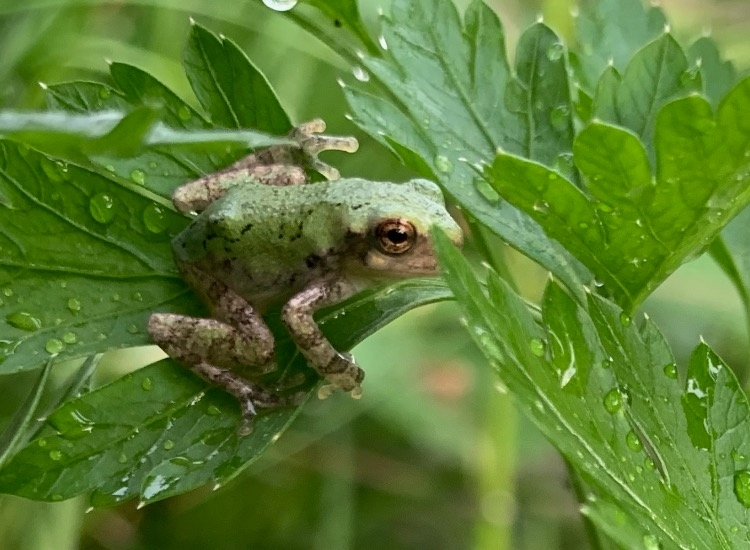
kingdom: Animalia
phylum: Chordata
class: Amphibia
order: Anura
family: Hylidae
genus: Dryophytes
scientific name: Dryophytes versicolor
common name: Gray treefrog
